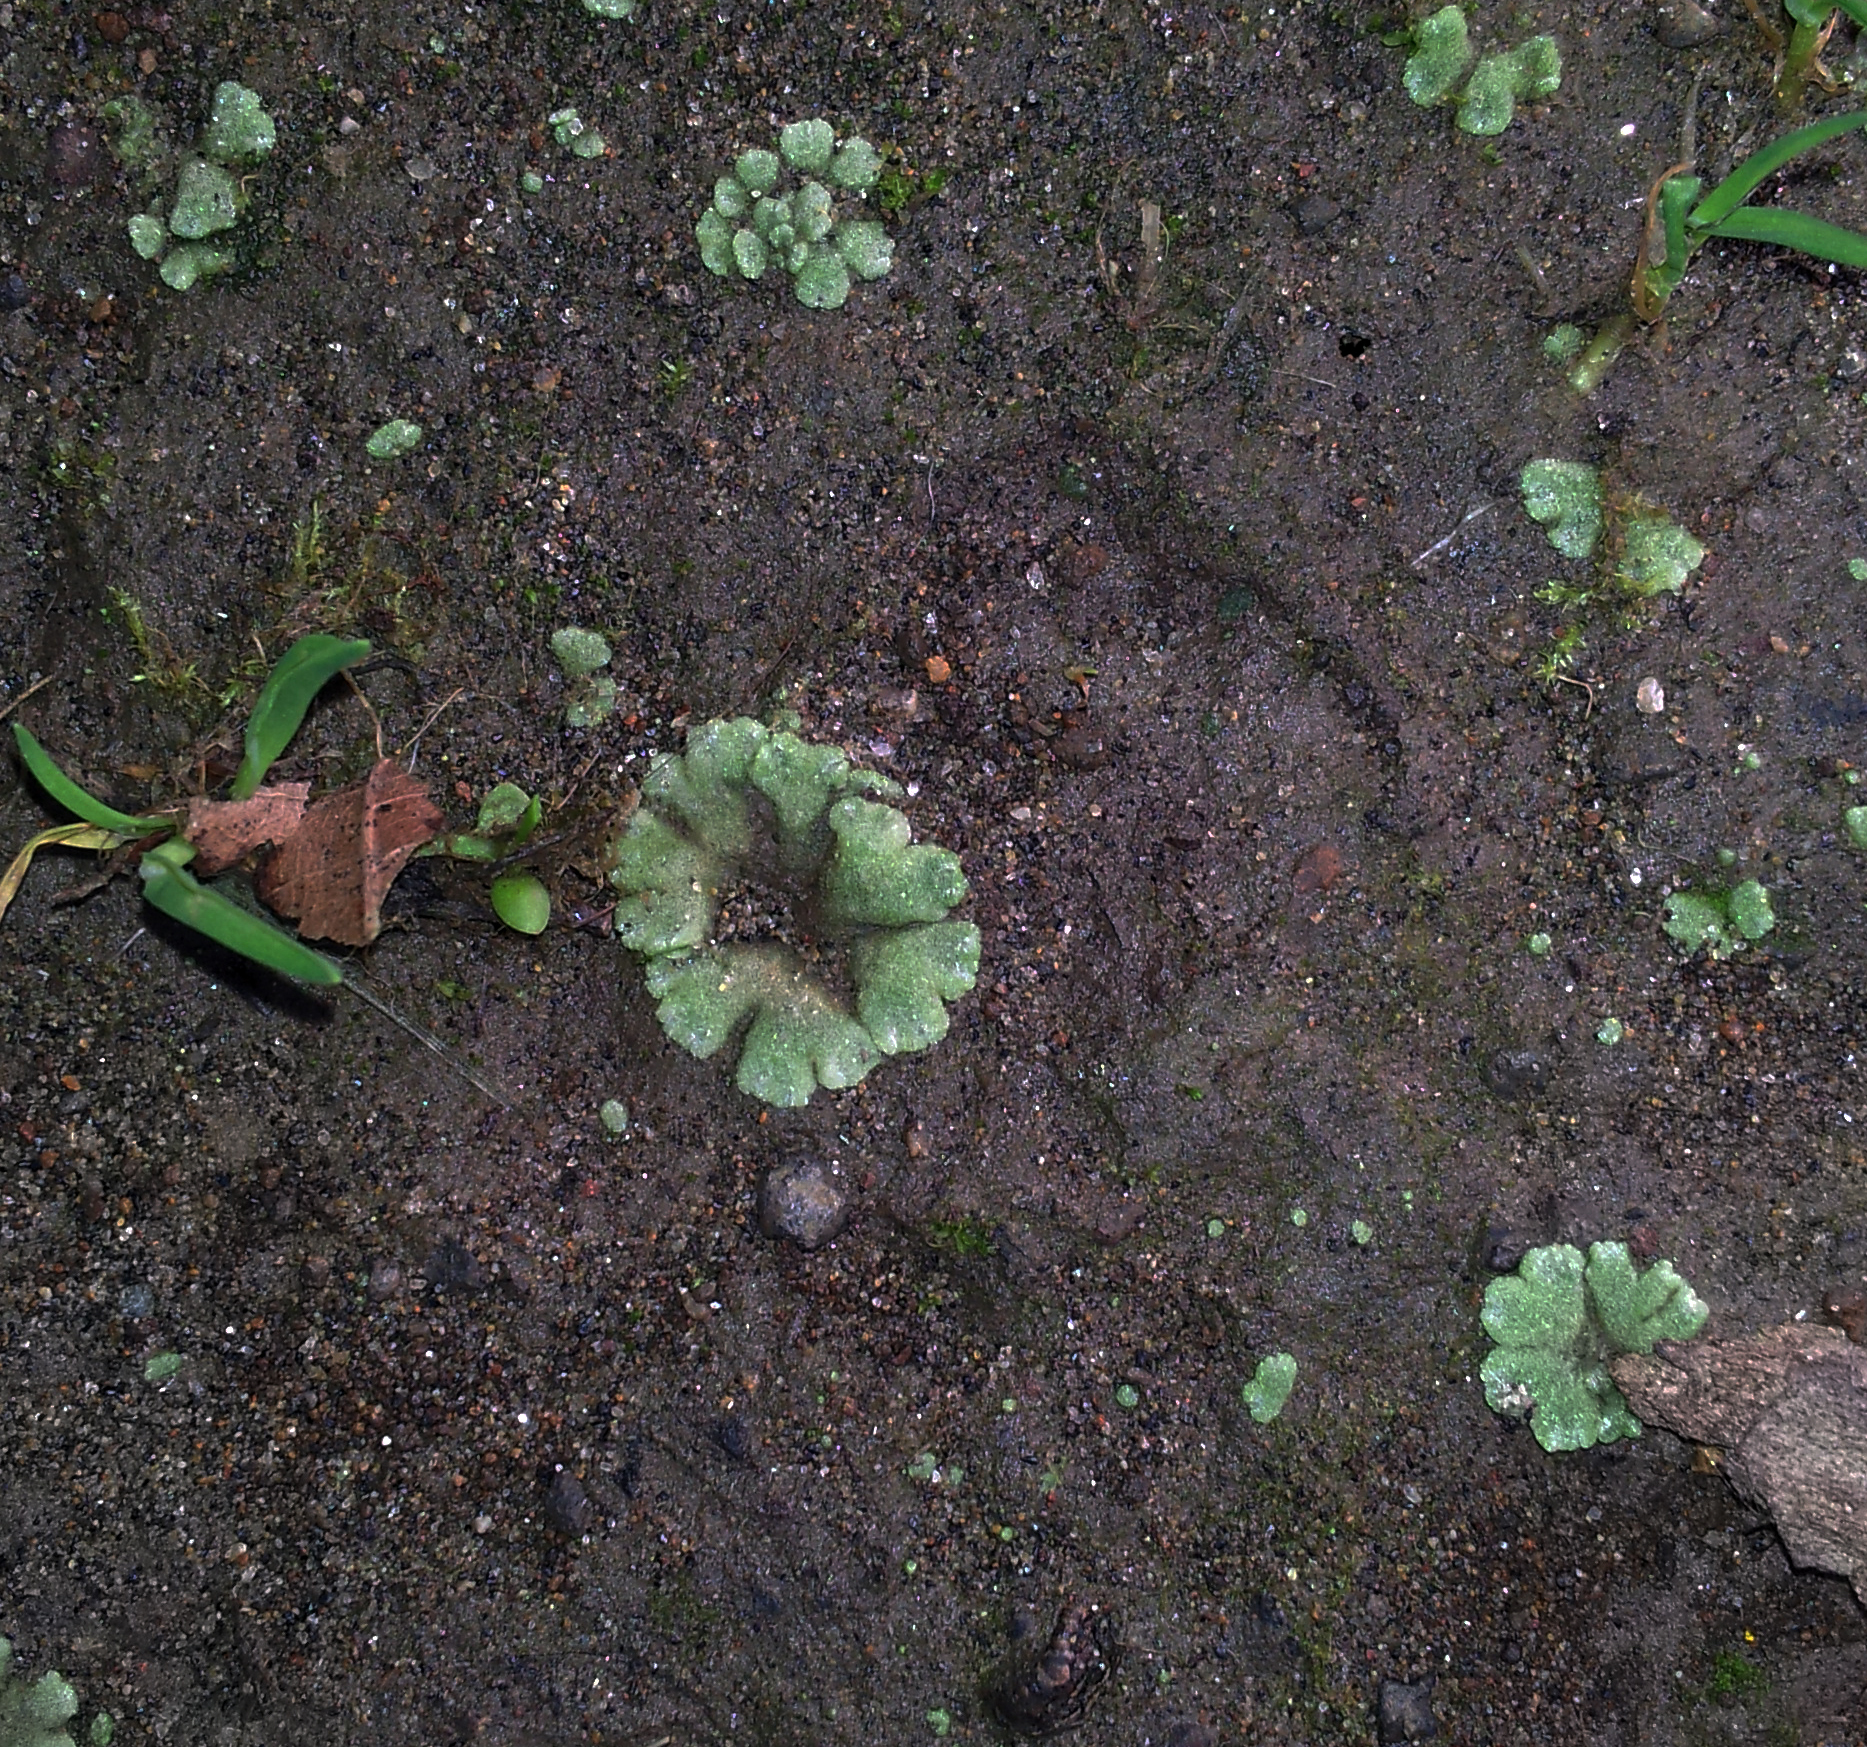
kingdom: Plantae
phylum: Marchantiophyta
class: Marchantiopsida
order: Marchantiales
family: Ricciaceae
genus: Riccia
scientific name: Riccia crystallina
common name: Blue crystalwort
